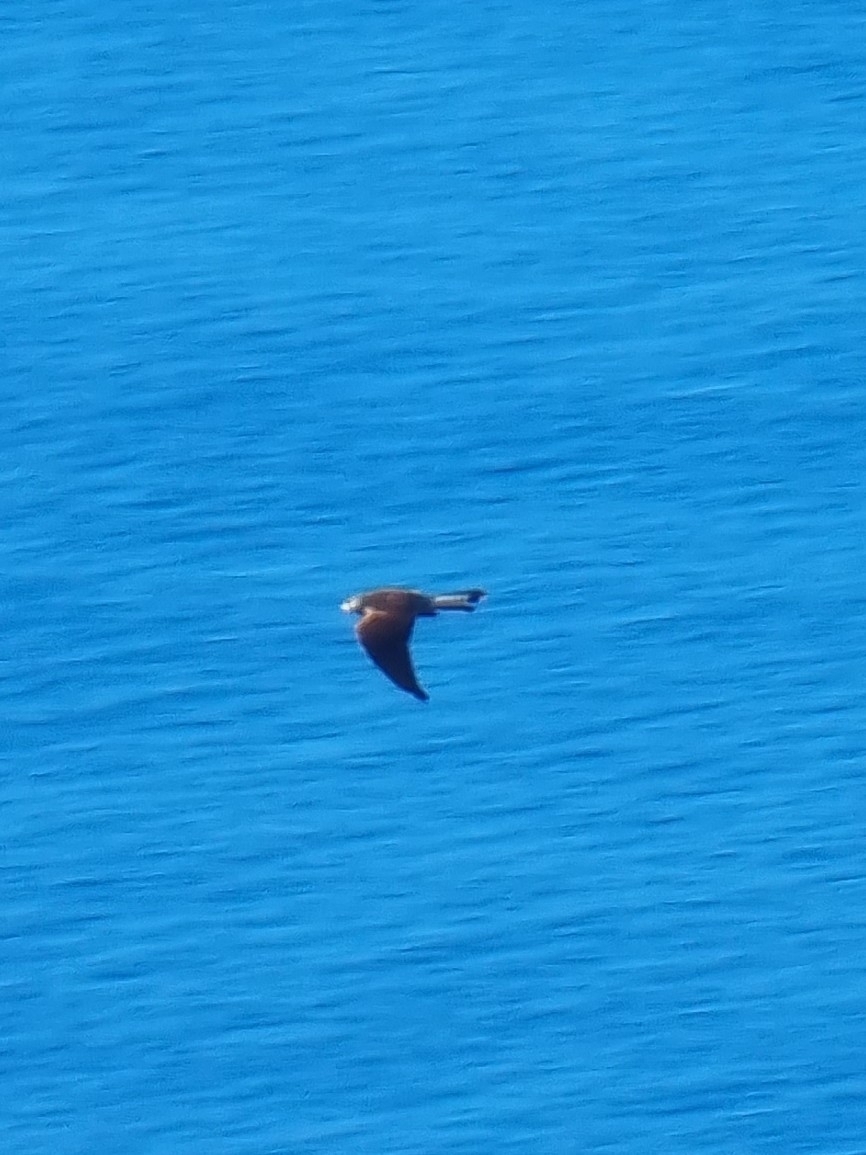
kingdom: Animalia
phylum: Chordata
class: Aves
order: Falconiformes
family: Falconidae
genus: Falco
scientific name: Falco tinnunculus
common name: Common kestrel
